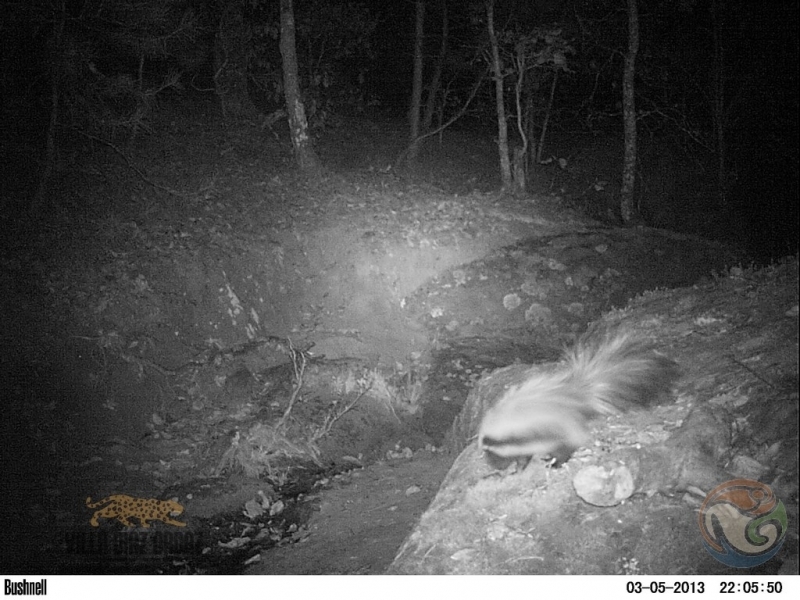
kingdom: Animalia
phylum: Chordata
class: Mammalia
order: Carnivora
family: Mephitidae
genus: Mephitis
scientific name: Mephitis macroura
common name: Hooded skunk
